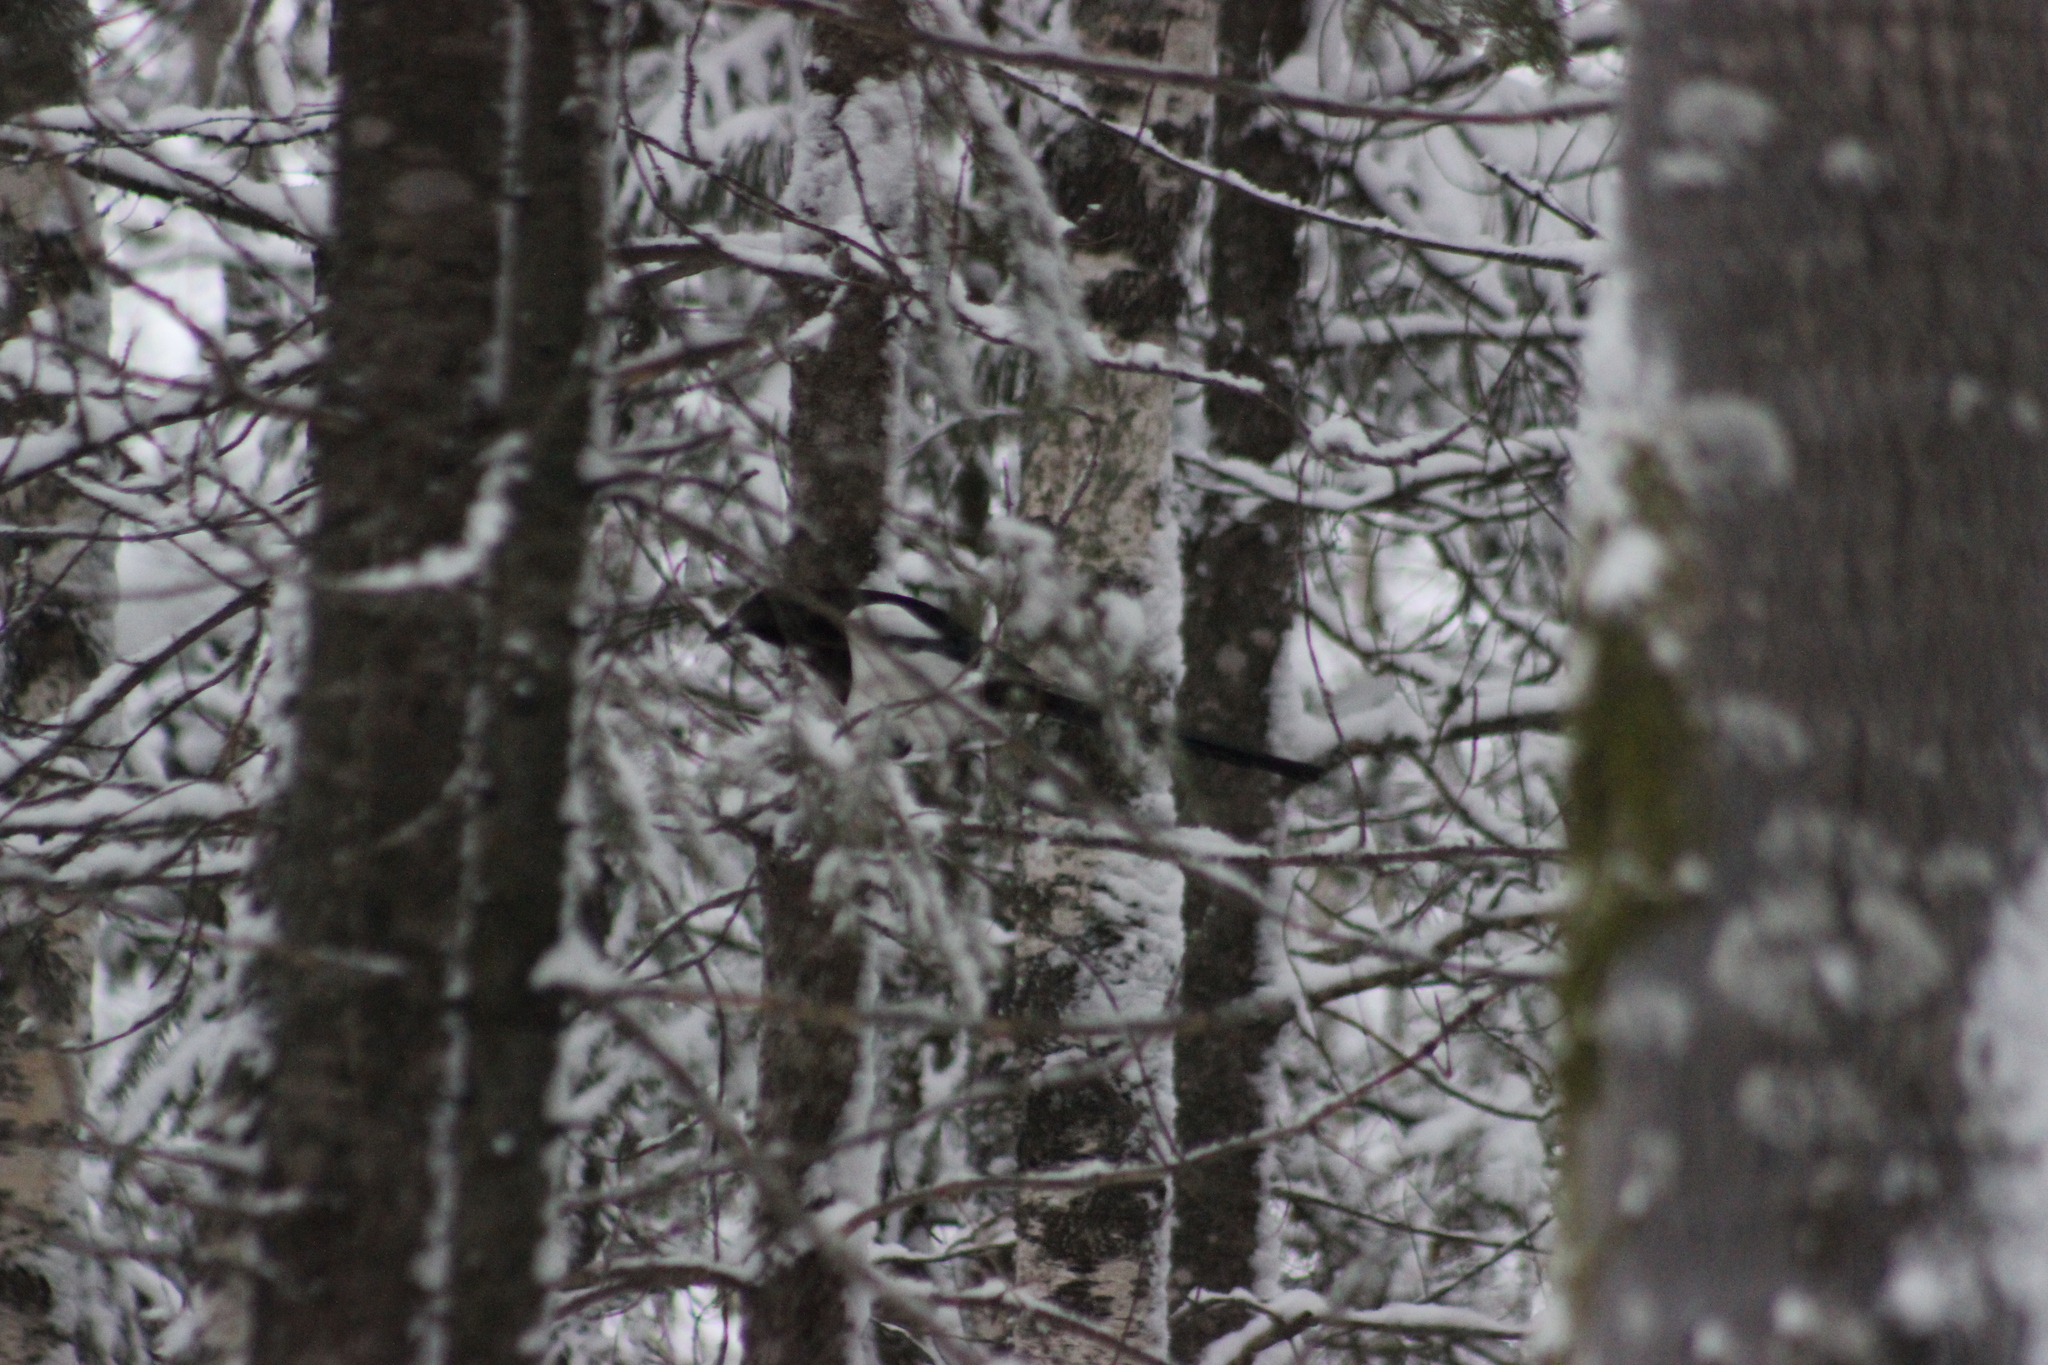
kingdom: Animalia
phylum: Chordata
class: Aves
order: Passeriformes
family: Corvidae
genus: Pica
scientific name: Pica pica
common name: Eurasian magpie
